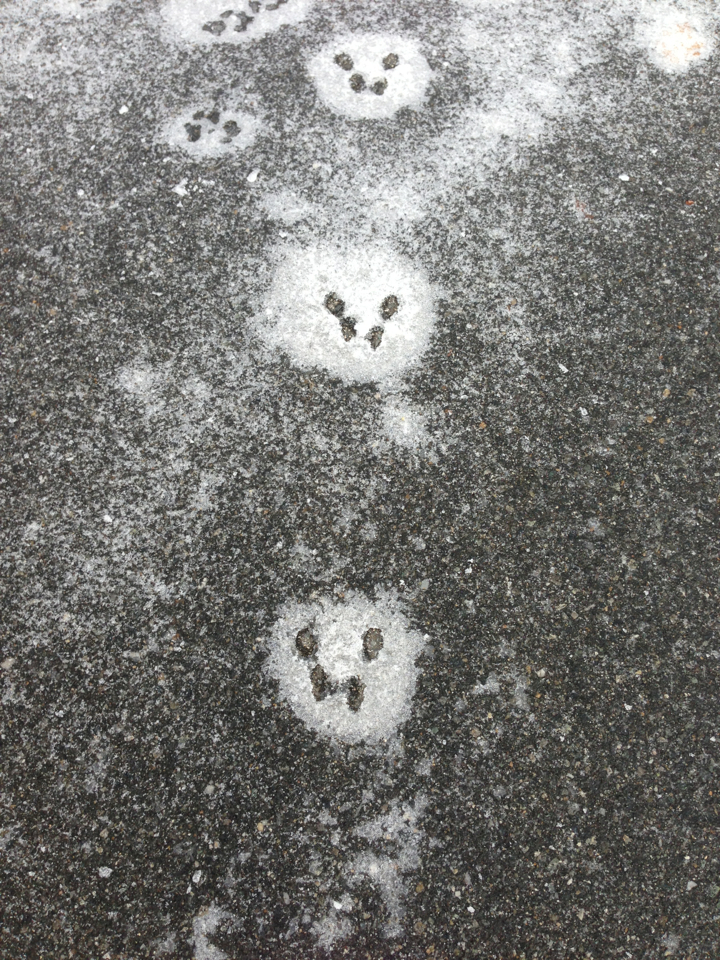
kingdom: Animalia
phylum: Chordata
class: Mammalia
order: Rodentia
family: Sciuridae
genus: Sciurus
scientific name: Sciurus carolinensis
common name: Eastern gray squirrel
